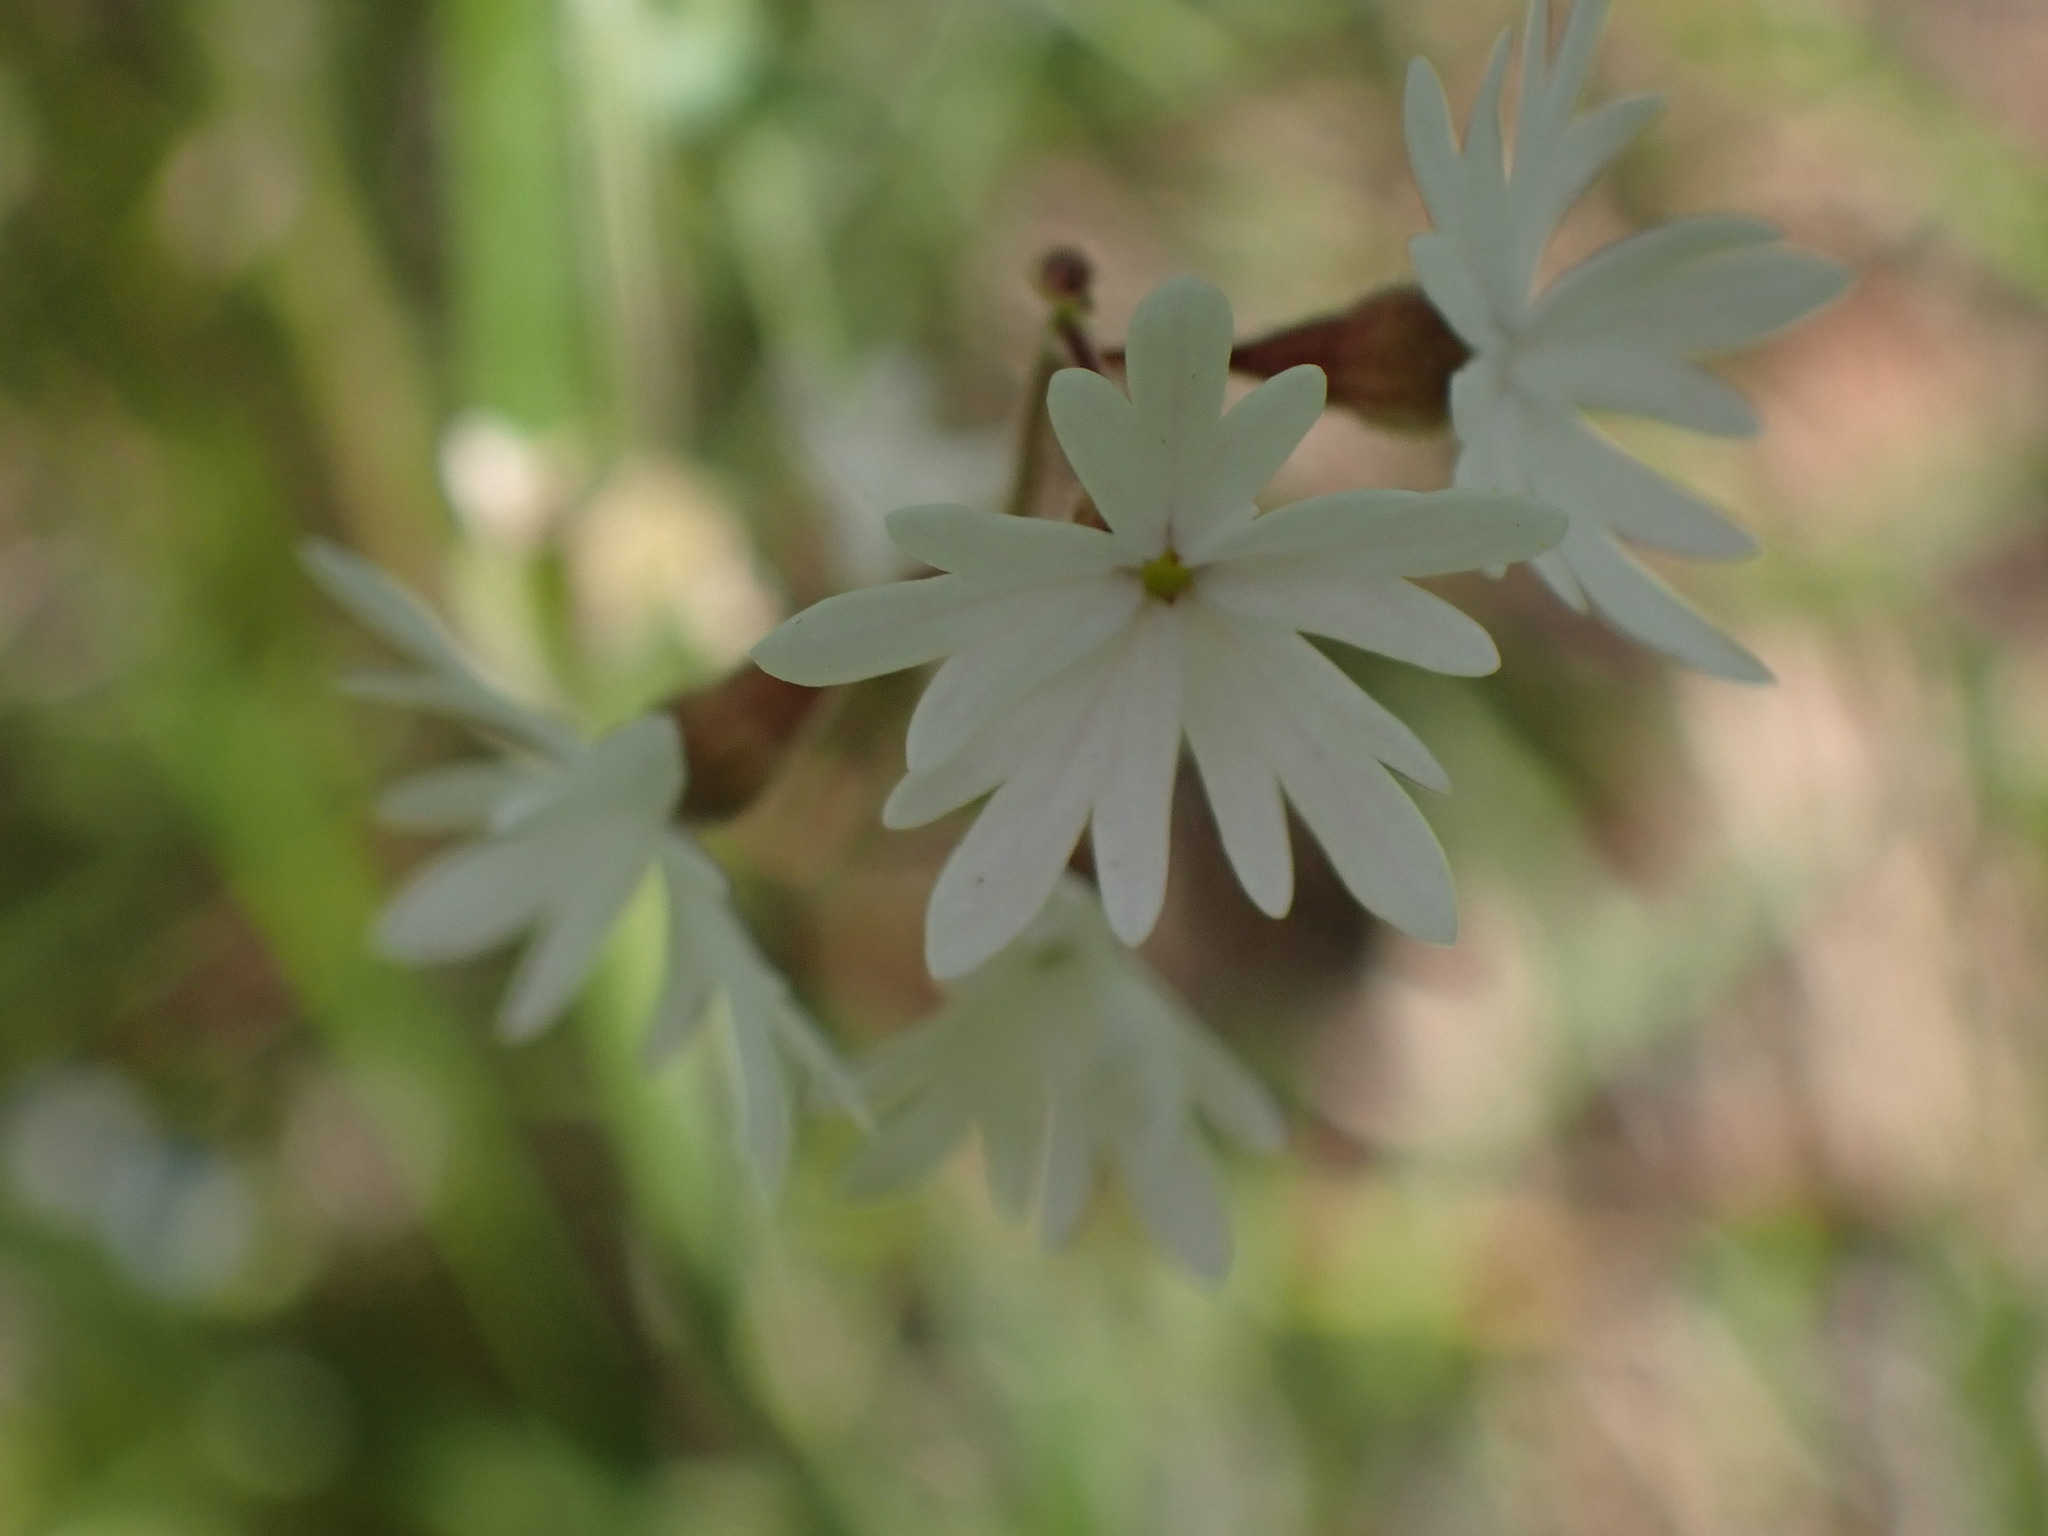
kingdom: Plantae
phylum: Tracheophyta
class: Magnoliopsida
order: Saxifragales
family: Saxifragaceae
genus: Lithophragma
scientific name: Lithophragma parviflorum
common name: Small-flowered fringe-cup
